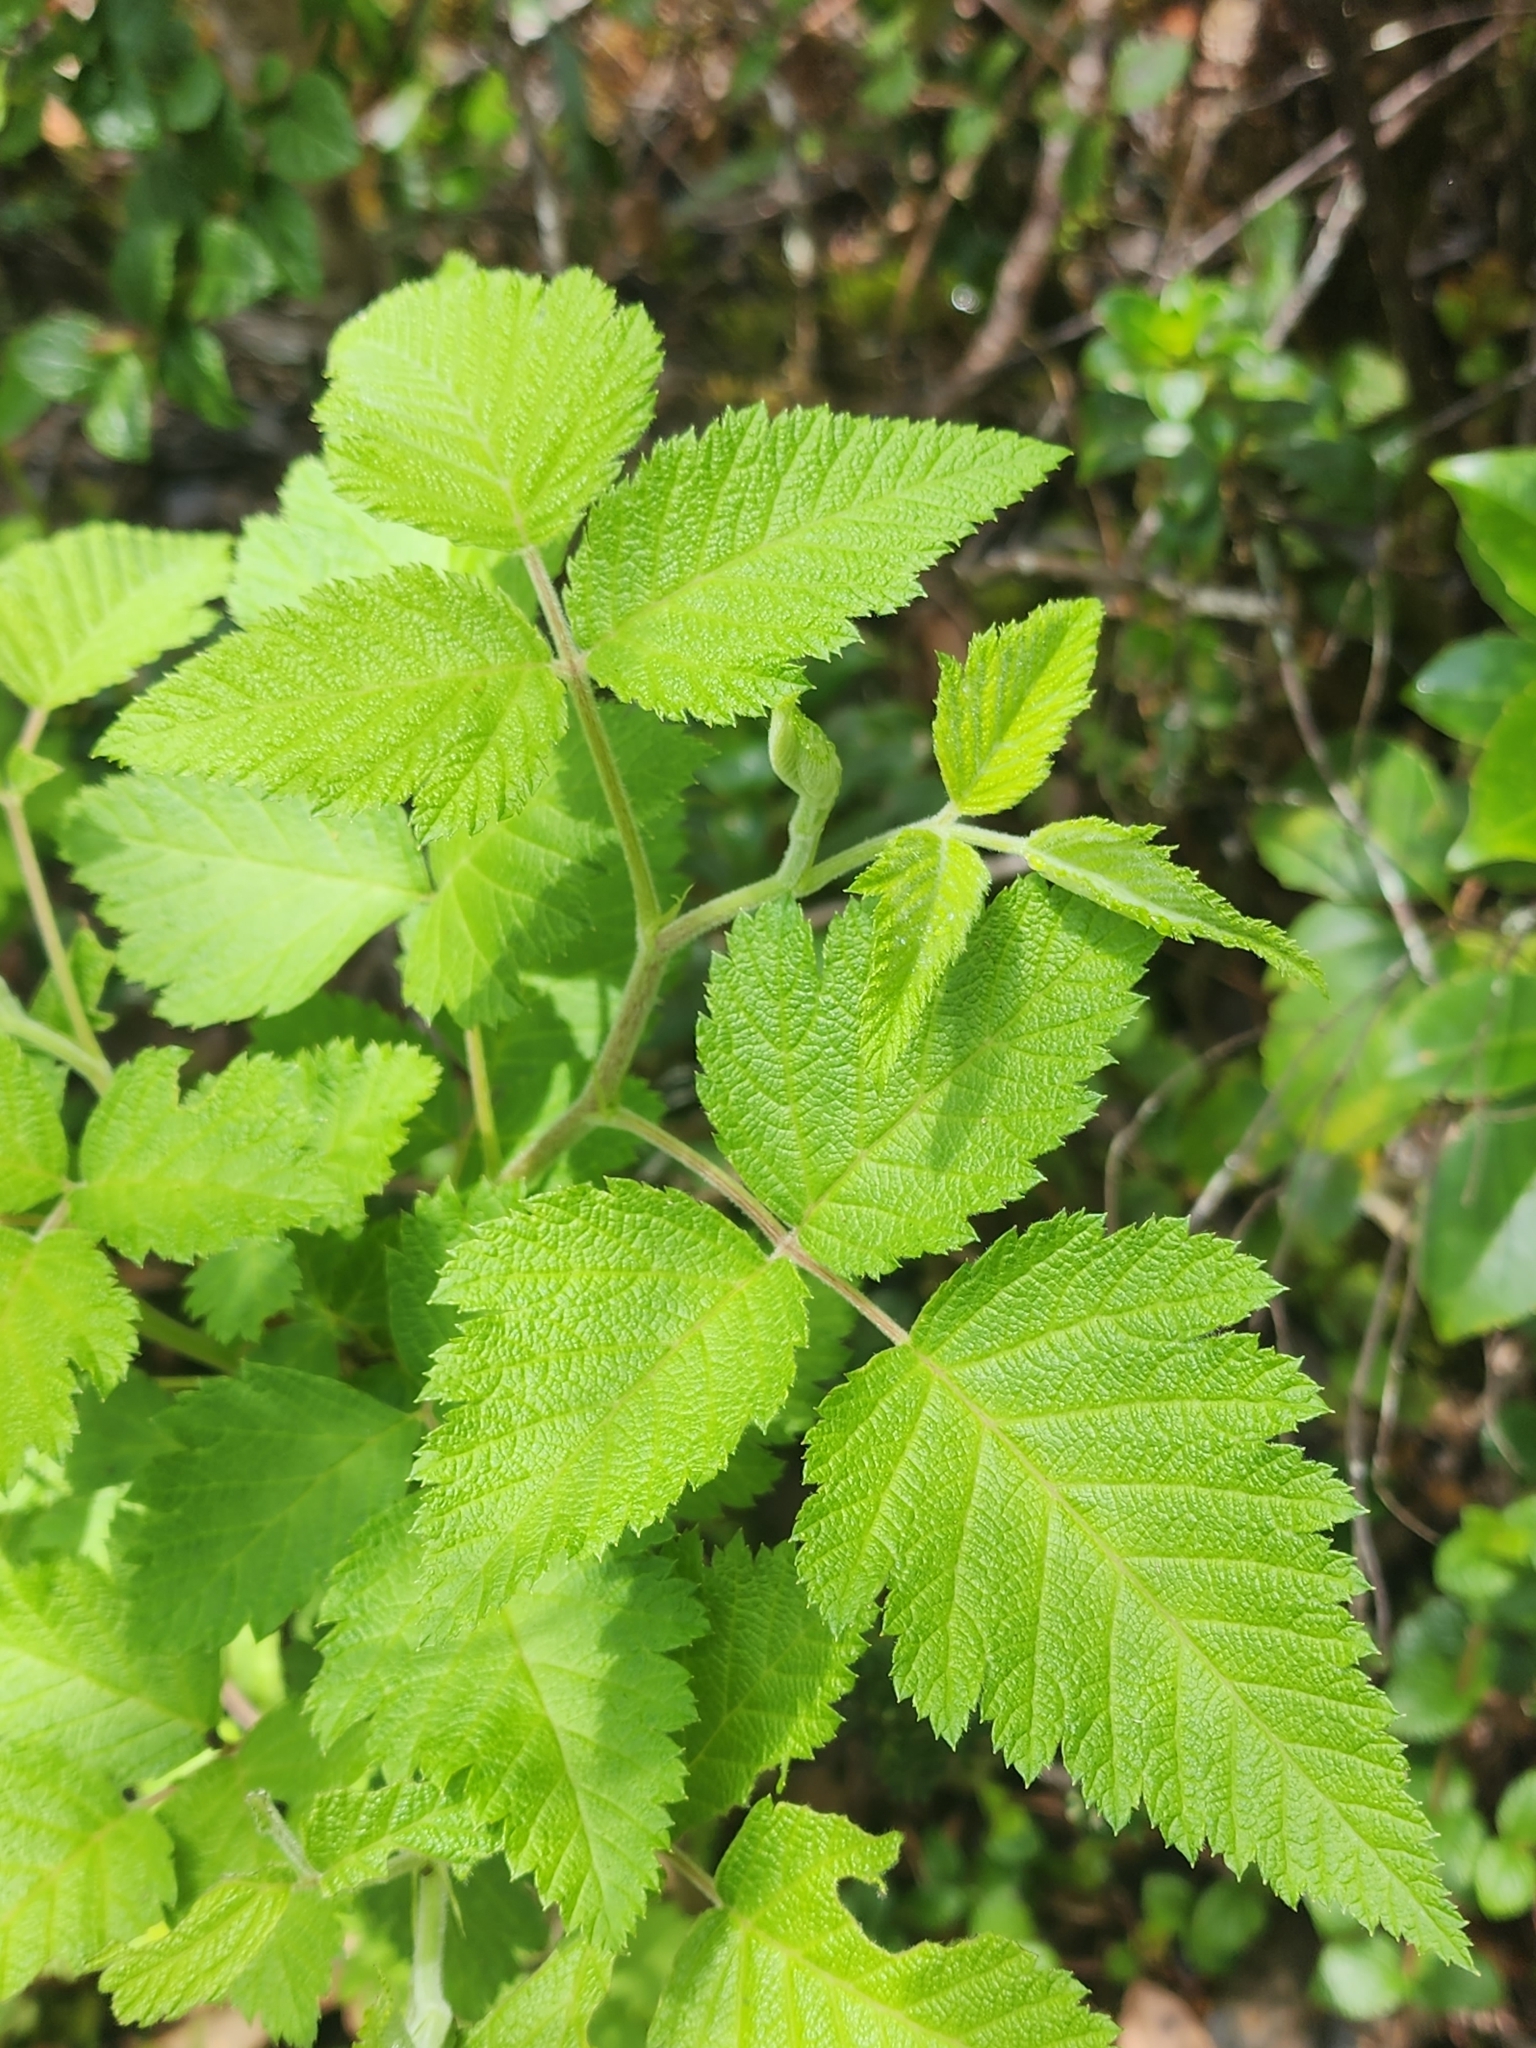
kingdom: Plantae
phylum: Tracheophyta
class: Magnoliopsida
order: Rosales
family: Rosaceae
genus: Rubus
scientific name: Rubus hawaiensis
